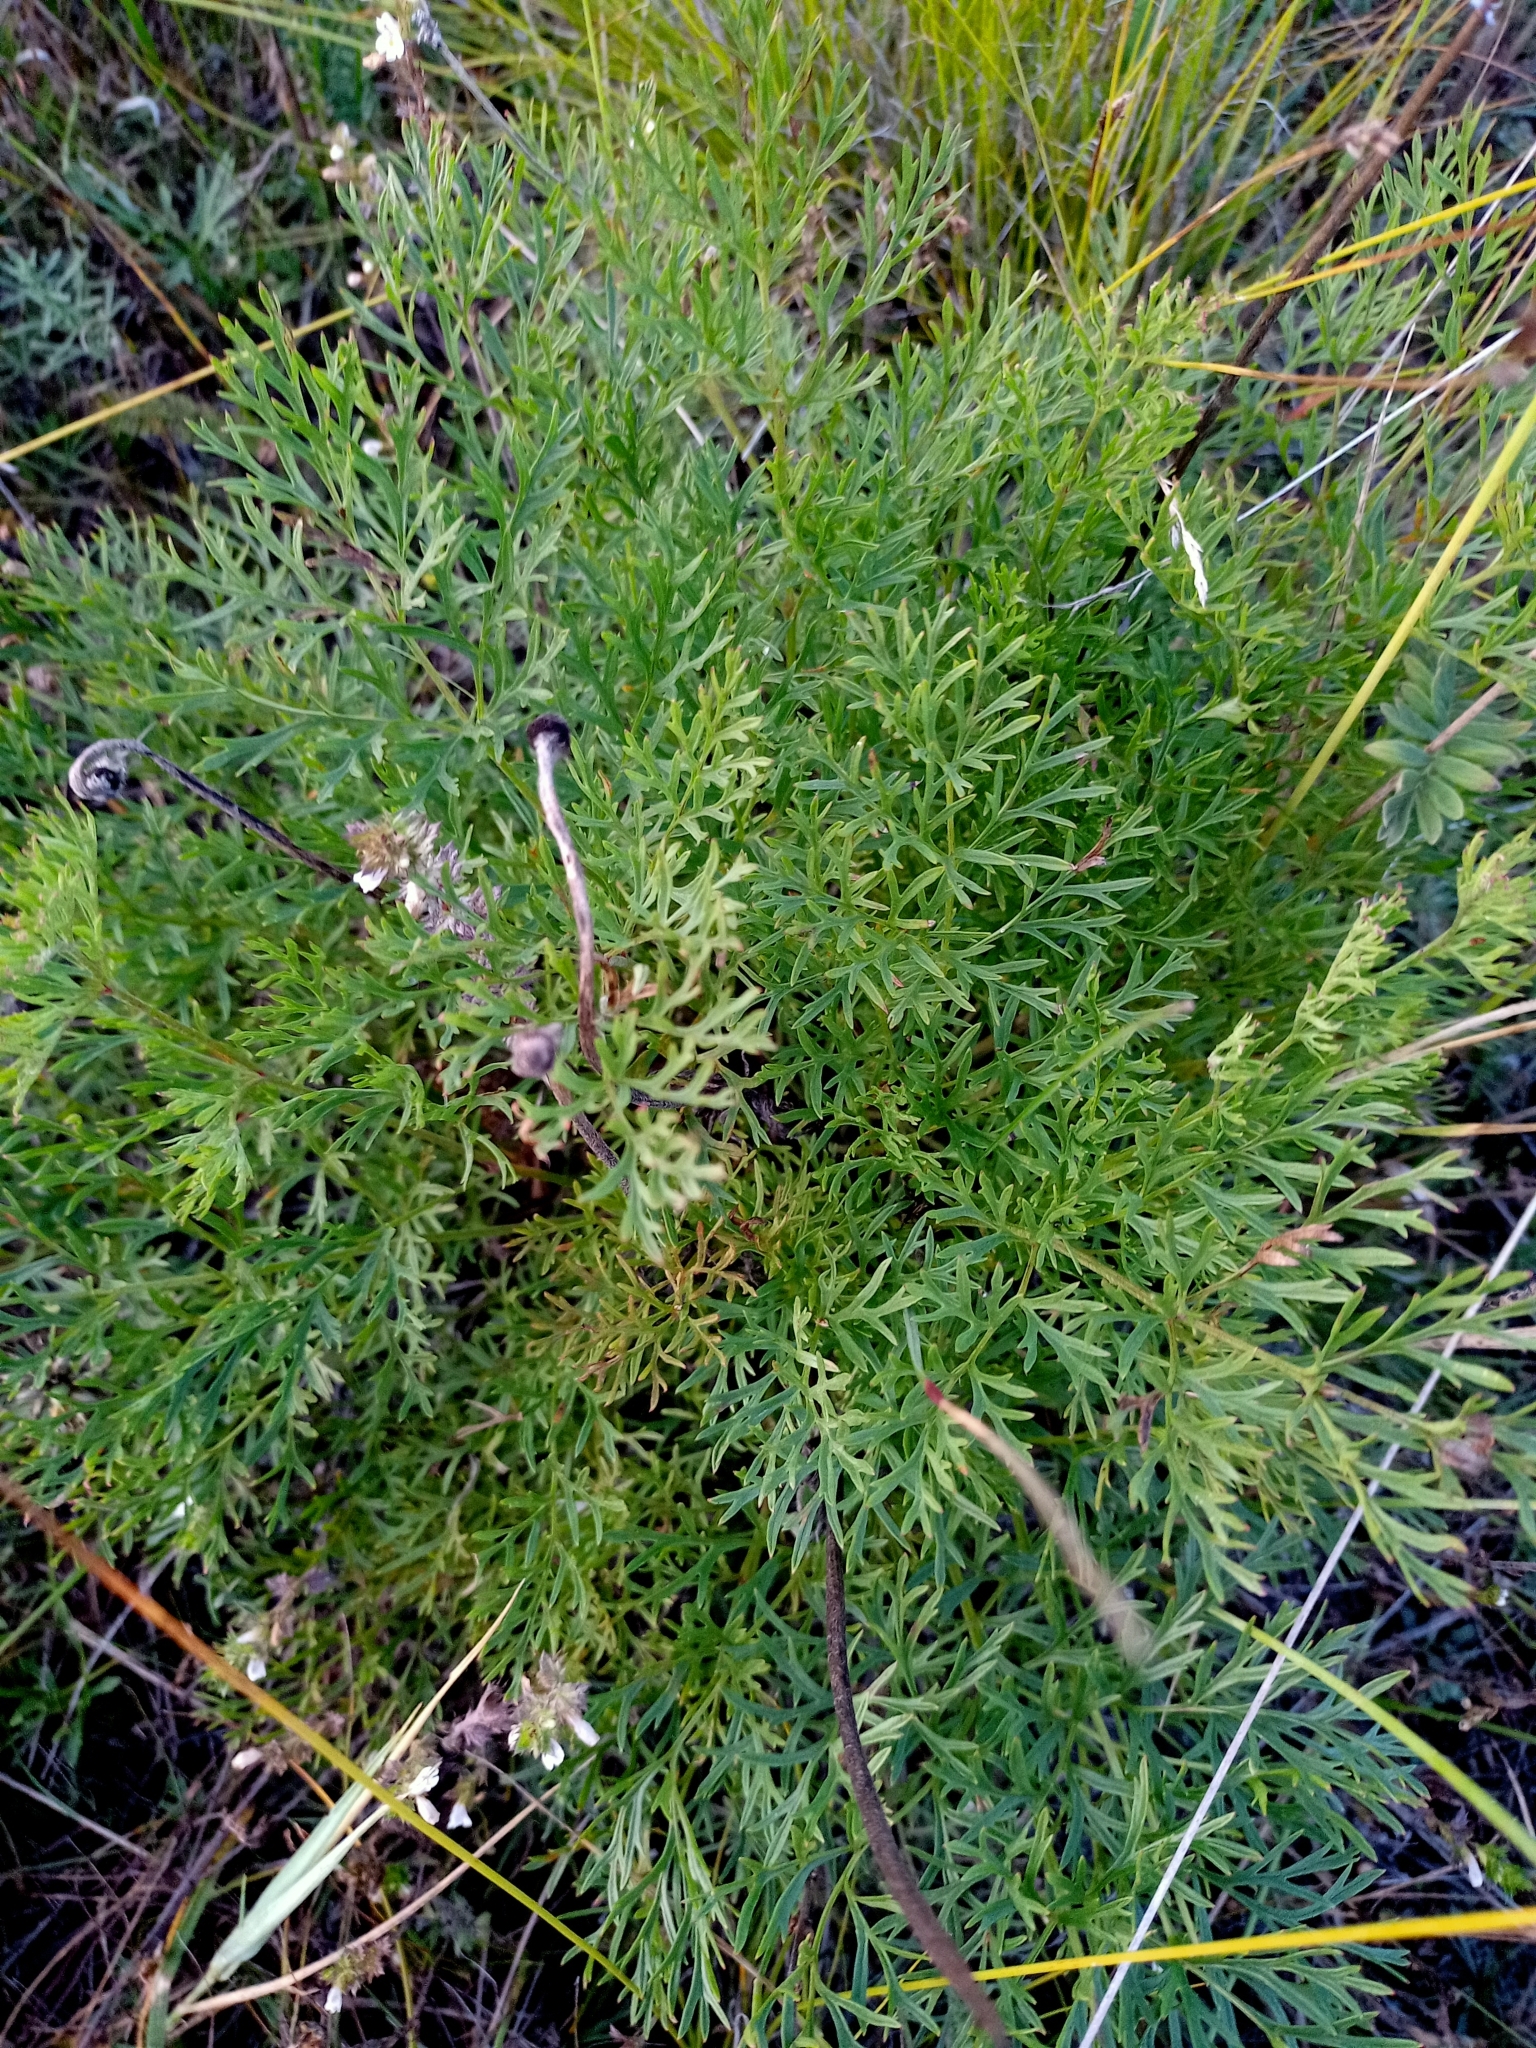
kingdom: Plantae
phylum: Tracheophyta
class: Magnoliopsida
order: Ranunculales
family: Ranunculaceae
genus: Pulsatilla
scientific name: Pulsatilla turczaninovii
